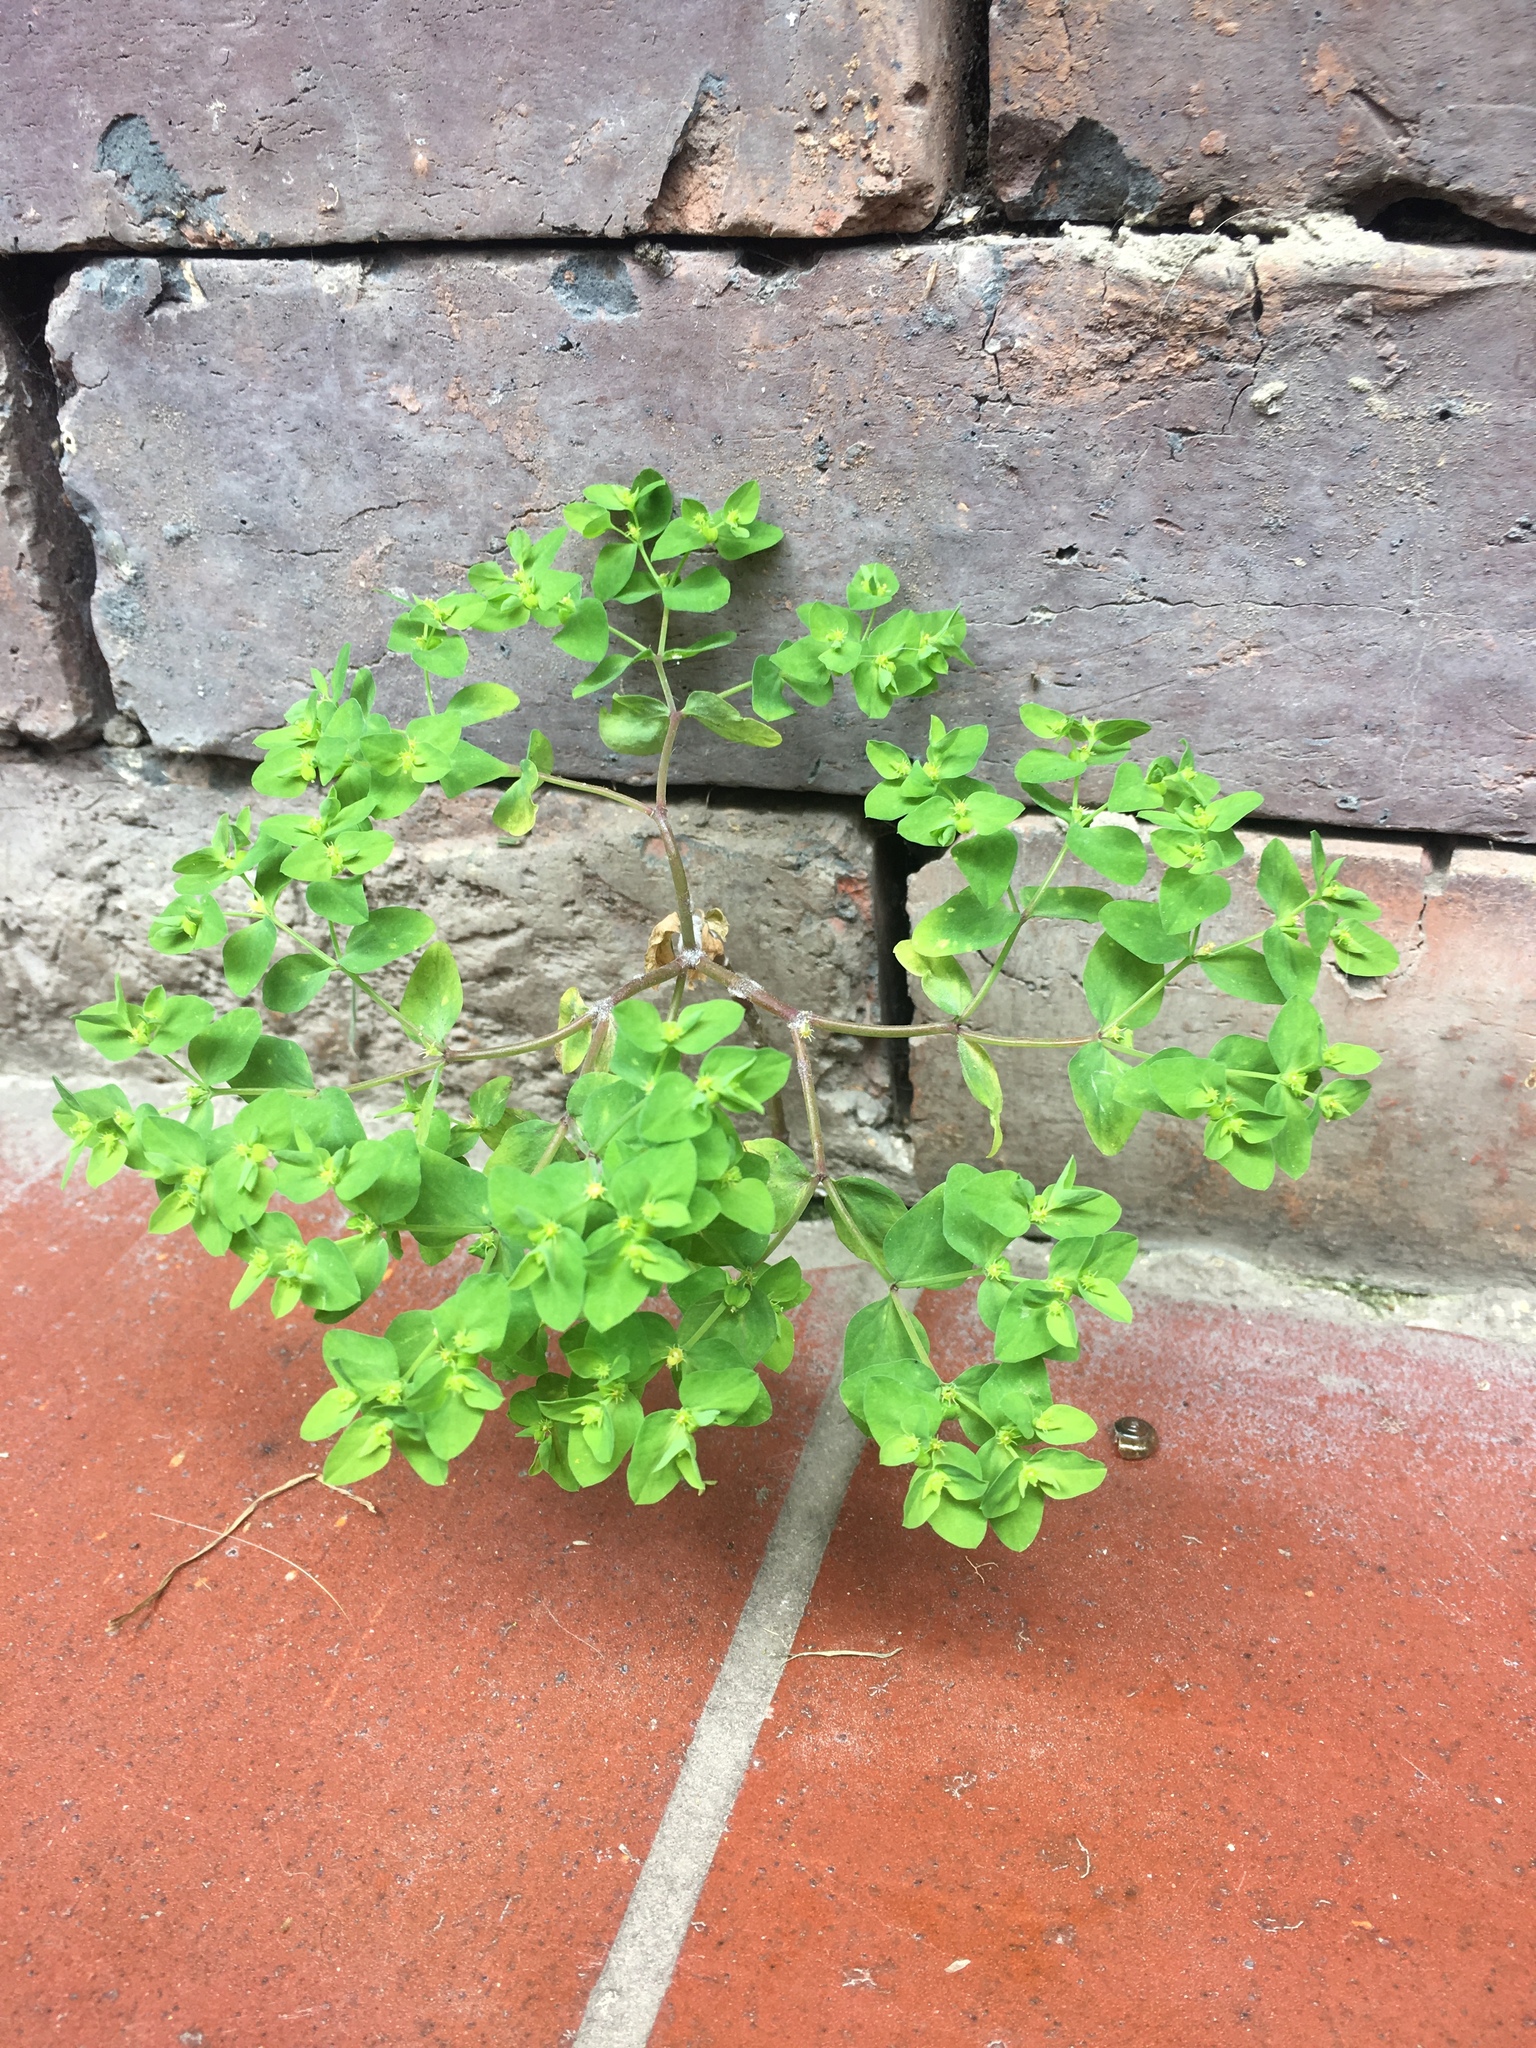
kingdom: Plantae
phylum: Tracheophyta
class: Magnoliopsida
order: Malpighiales
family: Euphorbiaceae
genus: Euphorbia
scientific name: Euphorbia peplus
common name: Petty spurge
